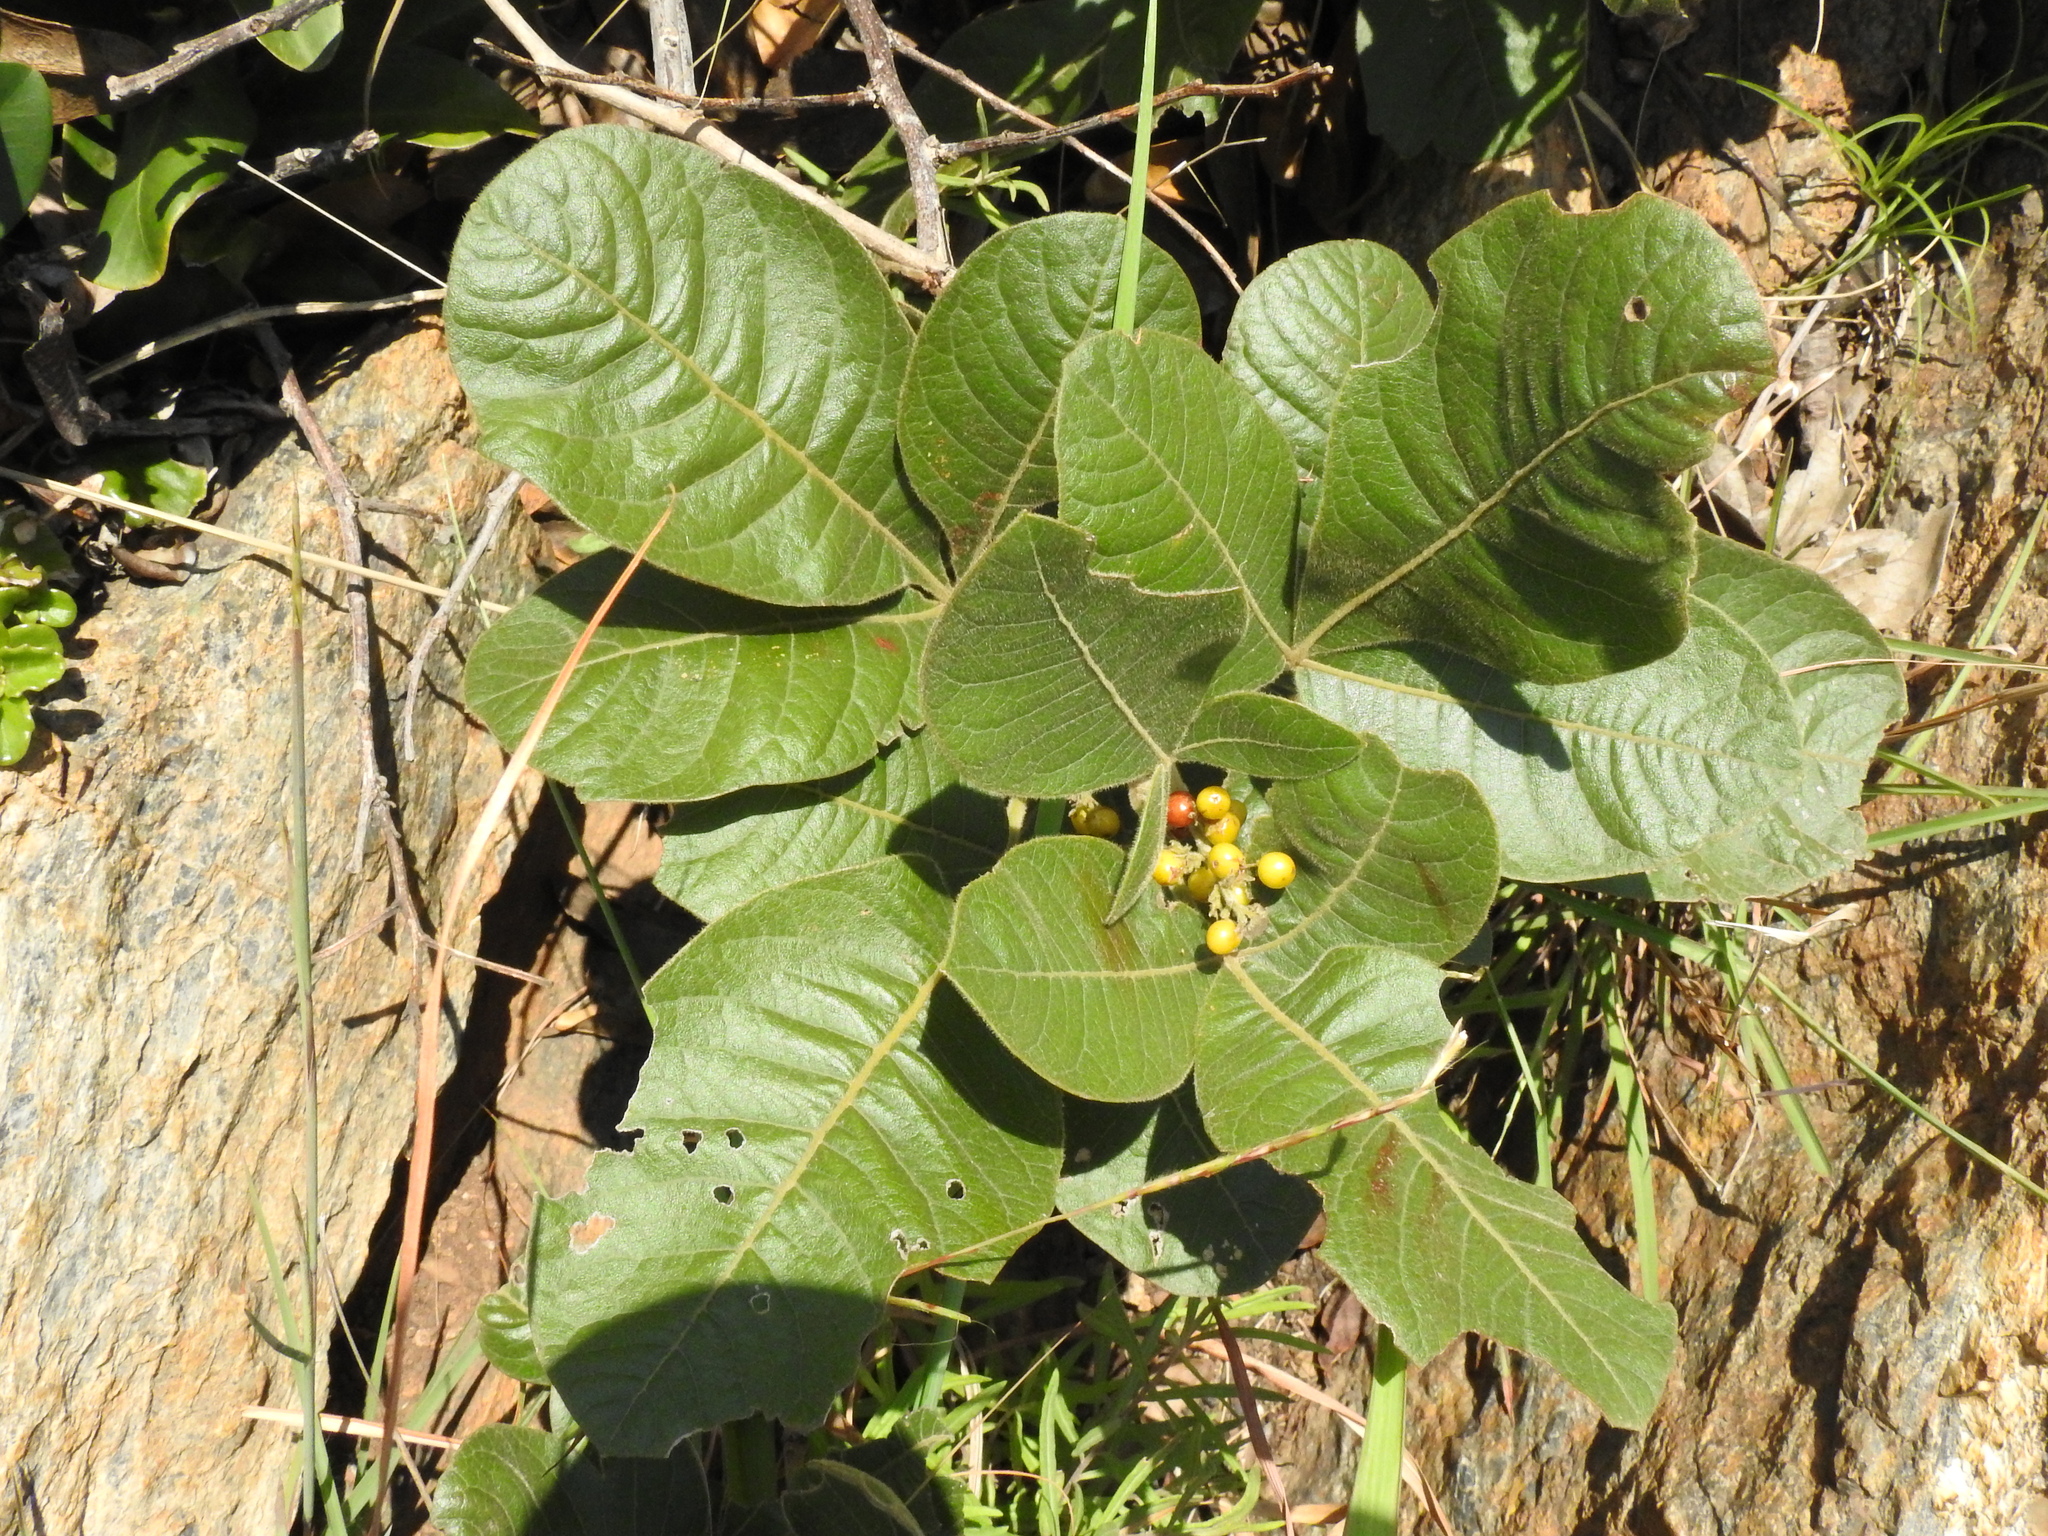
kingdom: Plantae
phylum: Tracheophyta
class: Magnoliopsida
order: Sapindales
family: Anacardiaceae
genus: Searsia
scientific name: Searsia tumulicola
